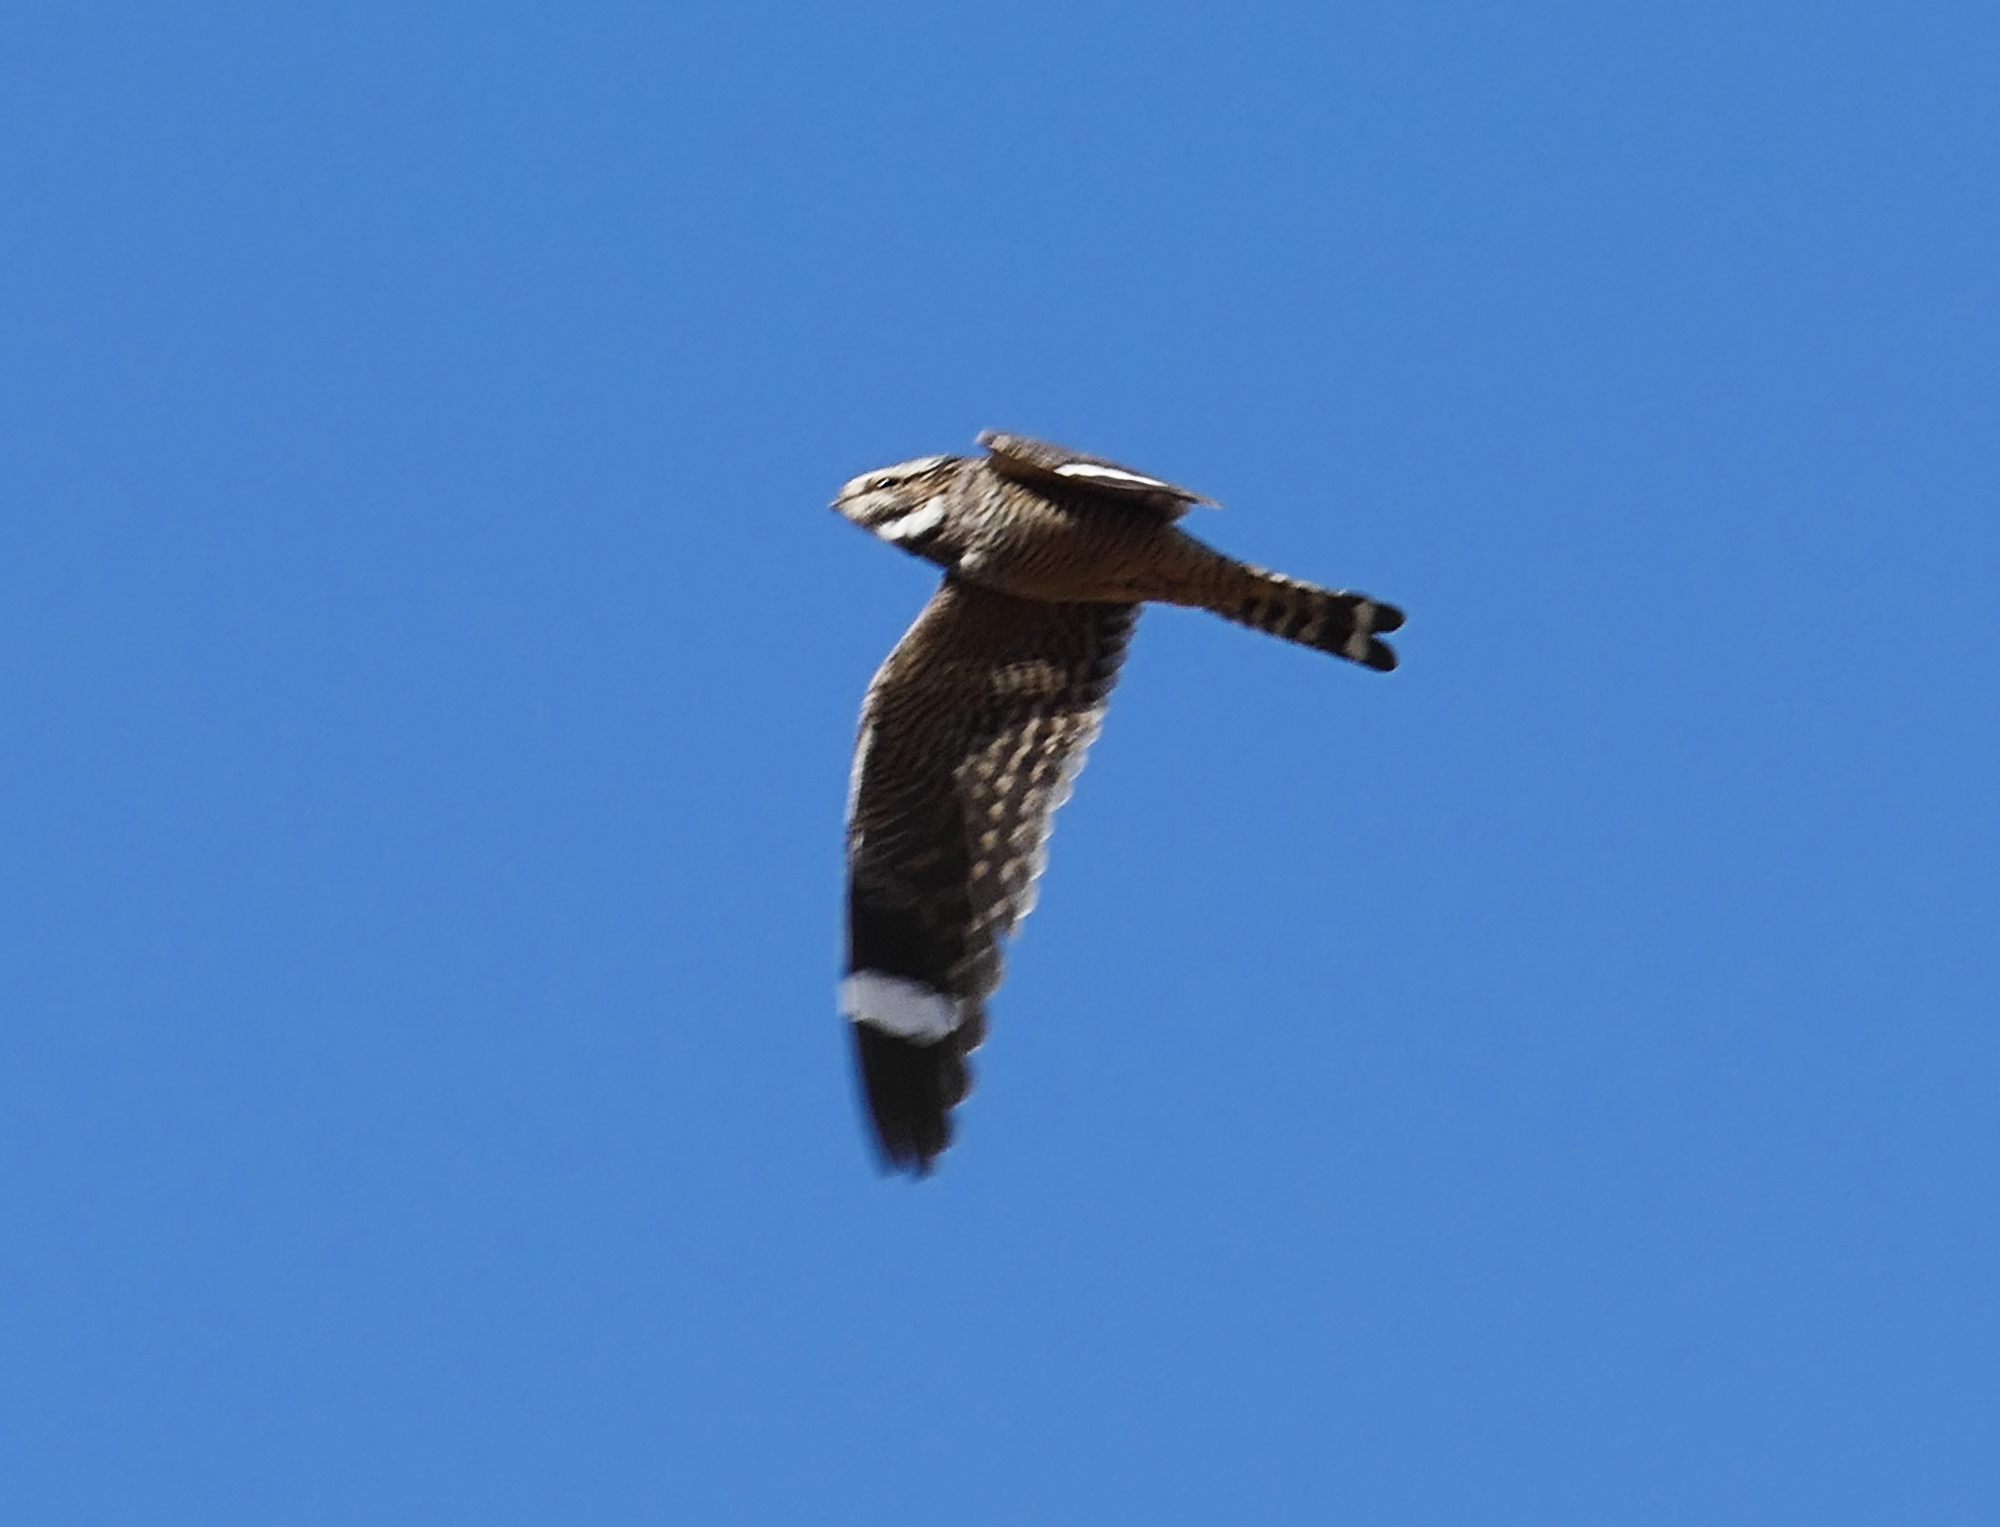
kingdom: Animalia
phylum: Chordata
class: Aves
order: Caprimulgiformes
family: Caprimulgidae
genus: Chordeiles
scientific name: Chordeiles acutipennis
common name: Lesser nighthawk
